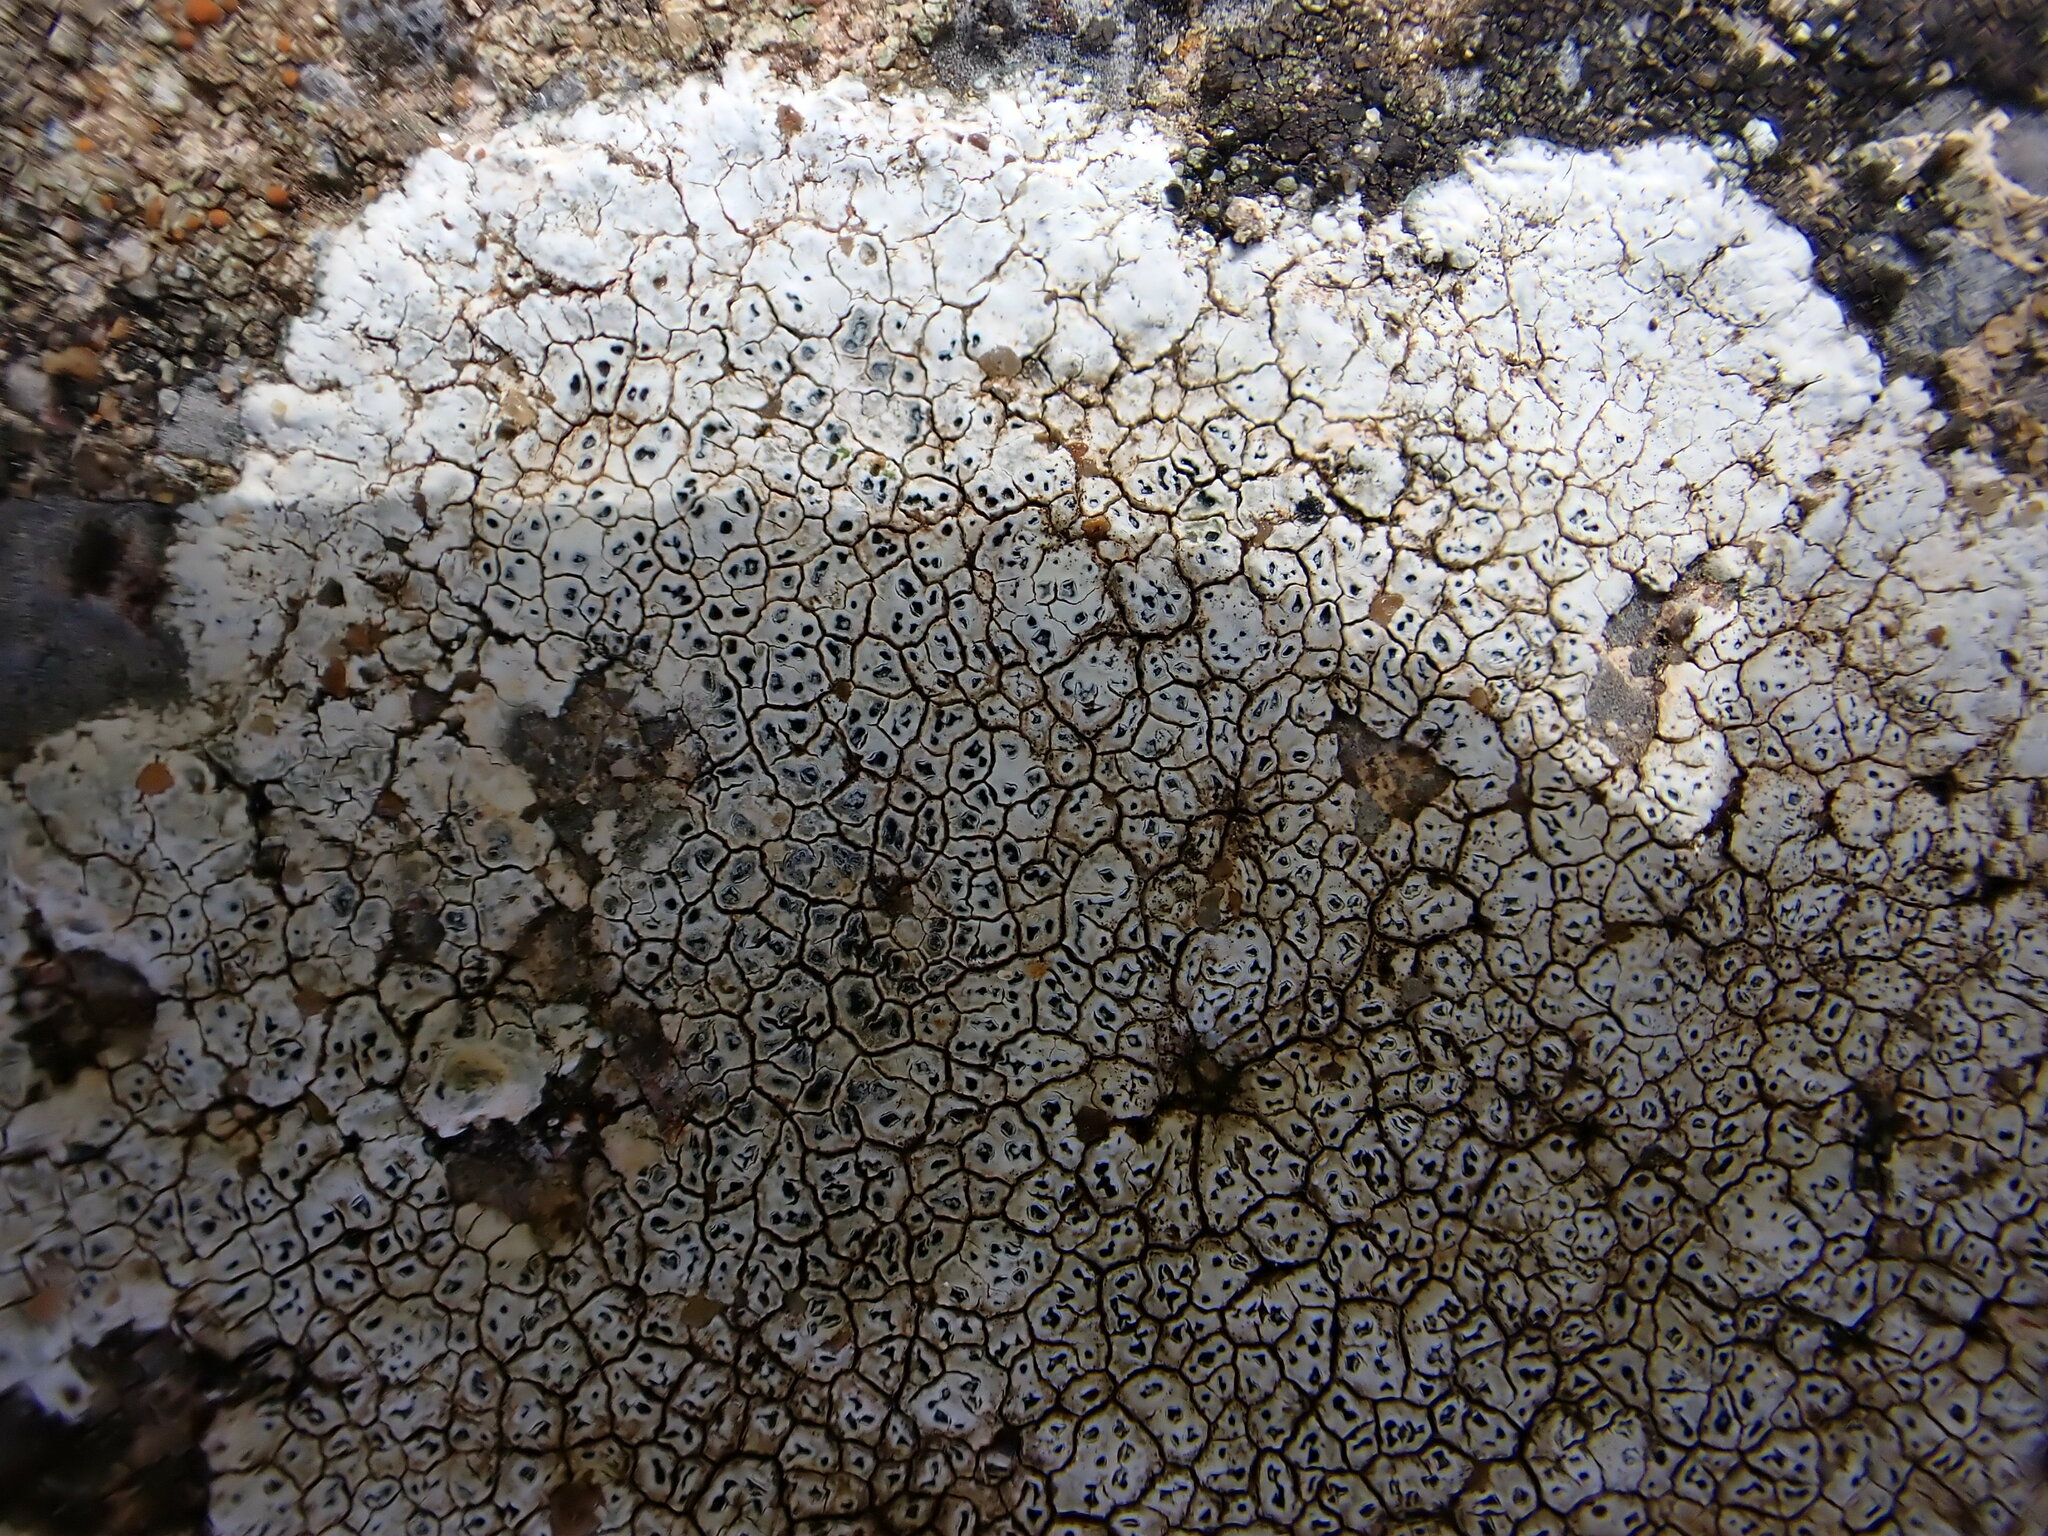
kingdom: Fungi
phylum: Ascomycota
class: Lecanoromycetes
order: Pertusariales
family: Megasporaceae
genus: Circinaria
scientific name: Circinaria calcarea
